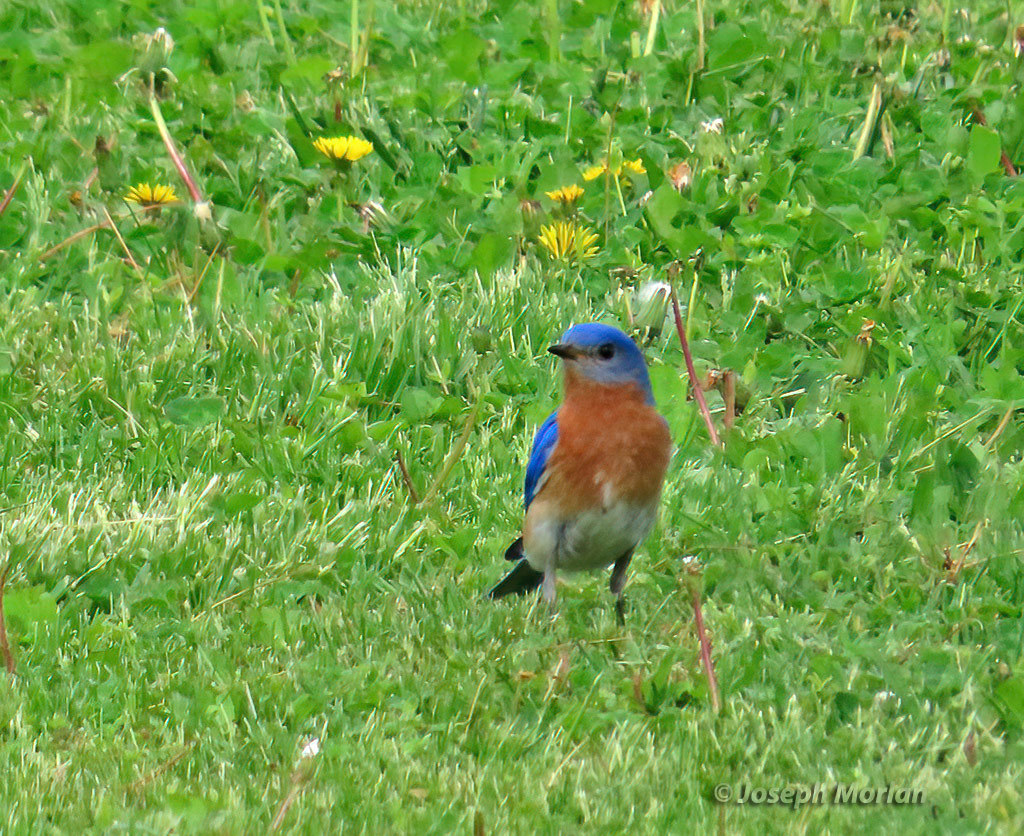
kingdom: Animalia
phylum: Chordata
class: Aves
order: Passeriformes
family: Turdidae
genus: Sialia
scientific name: Sialia sialis
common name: Eastern bluebird
